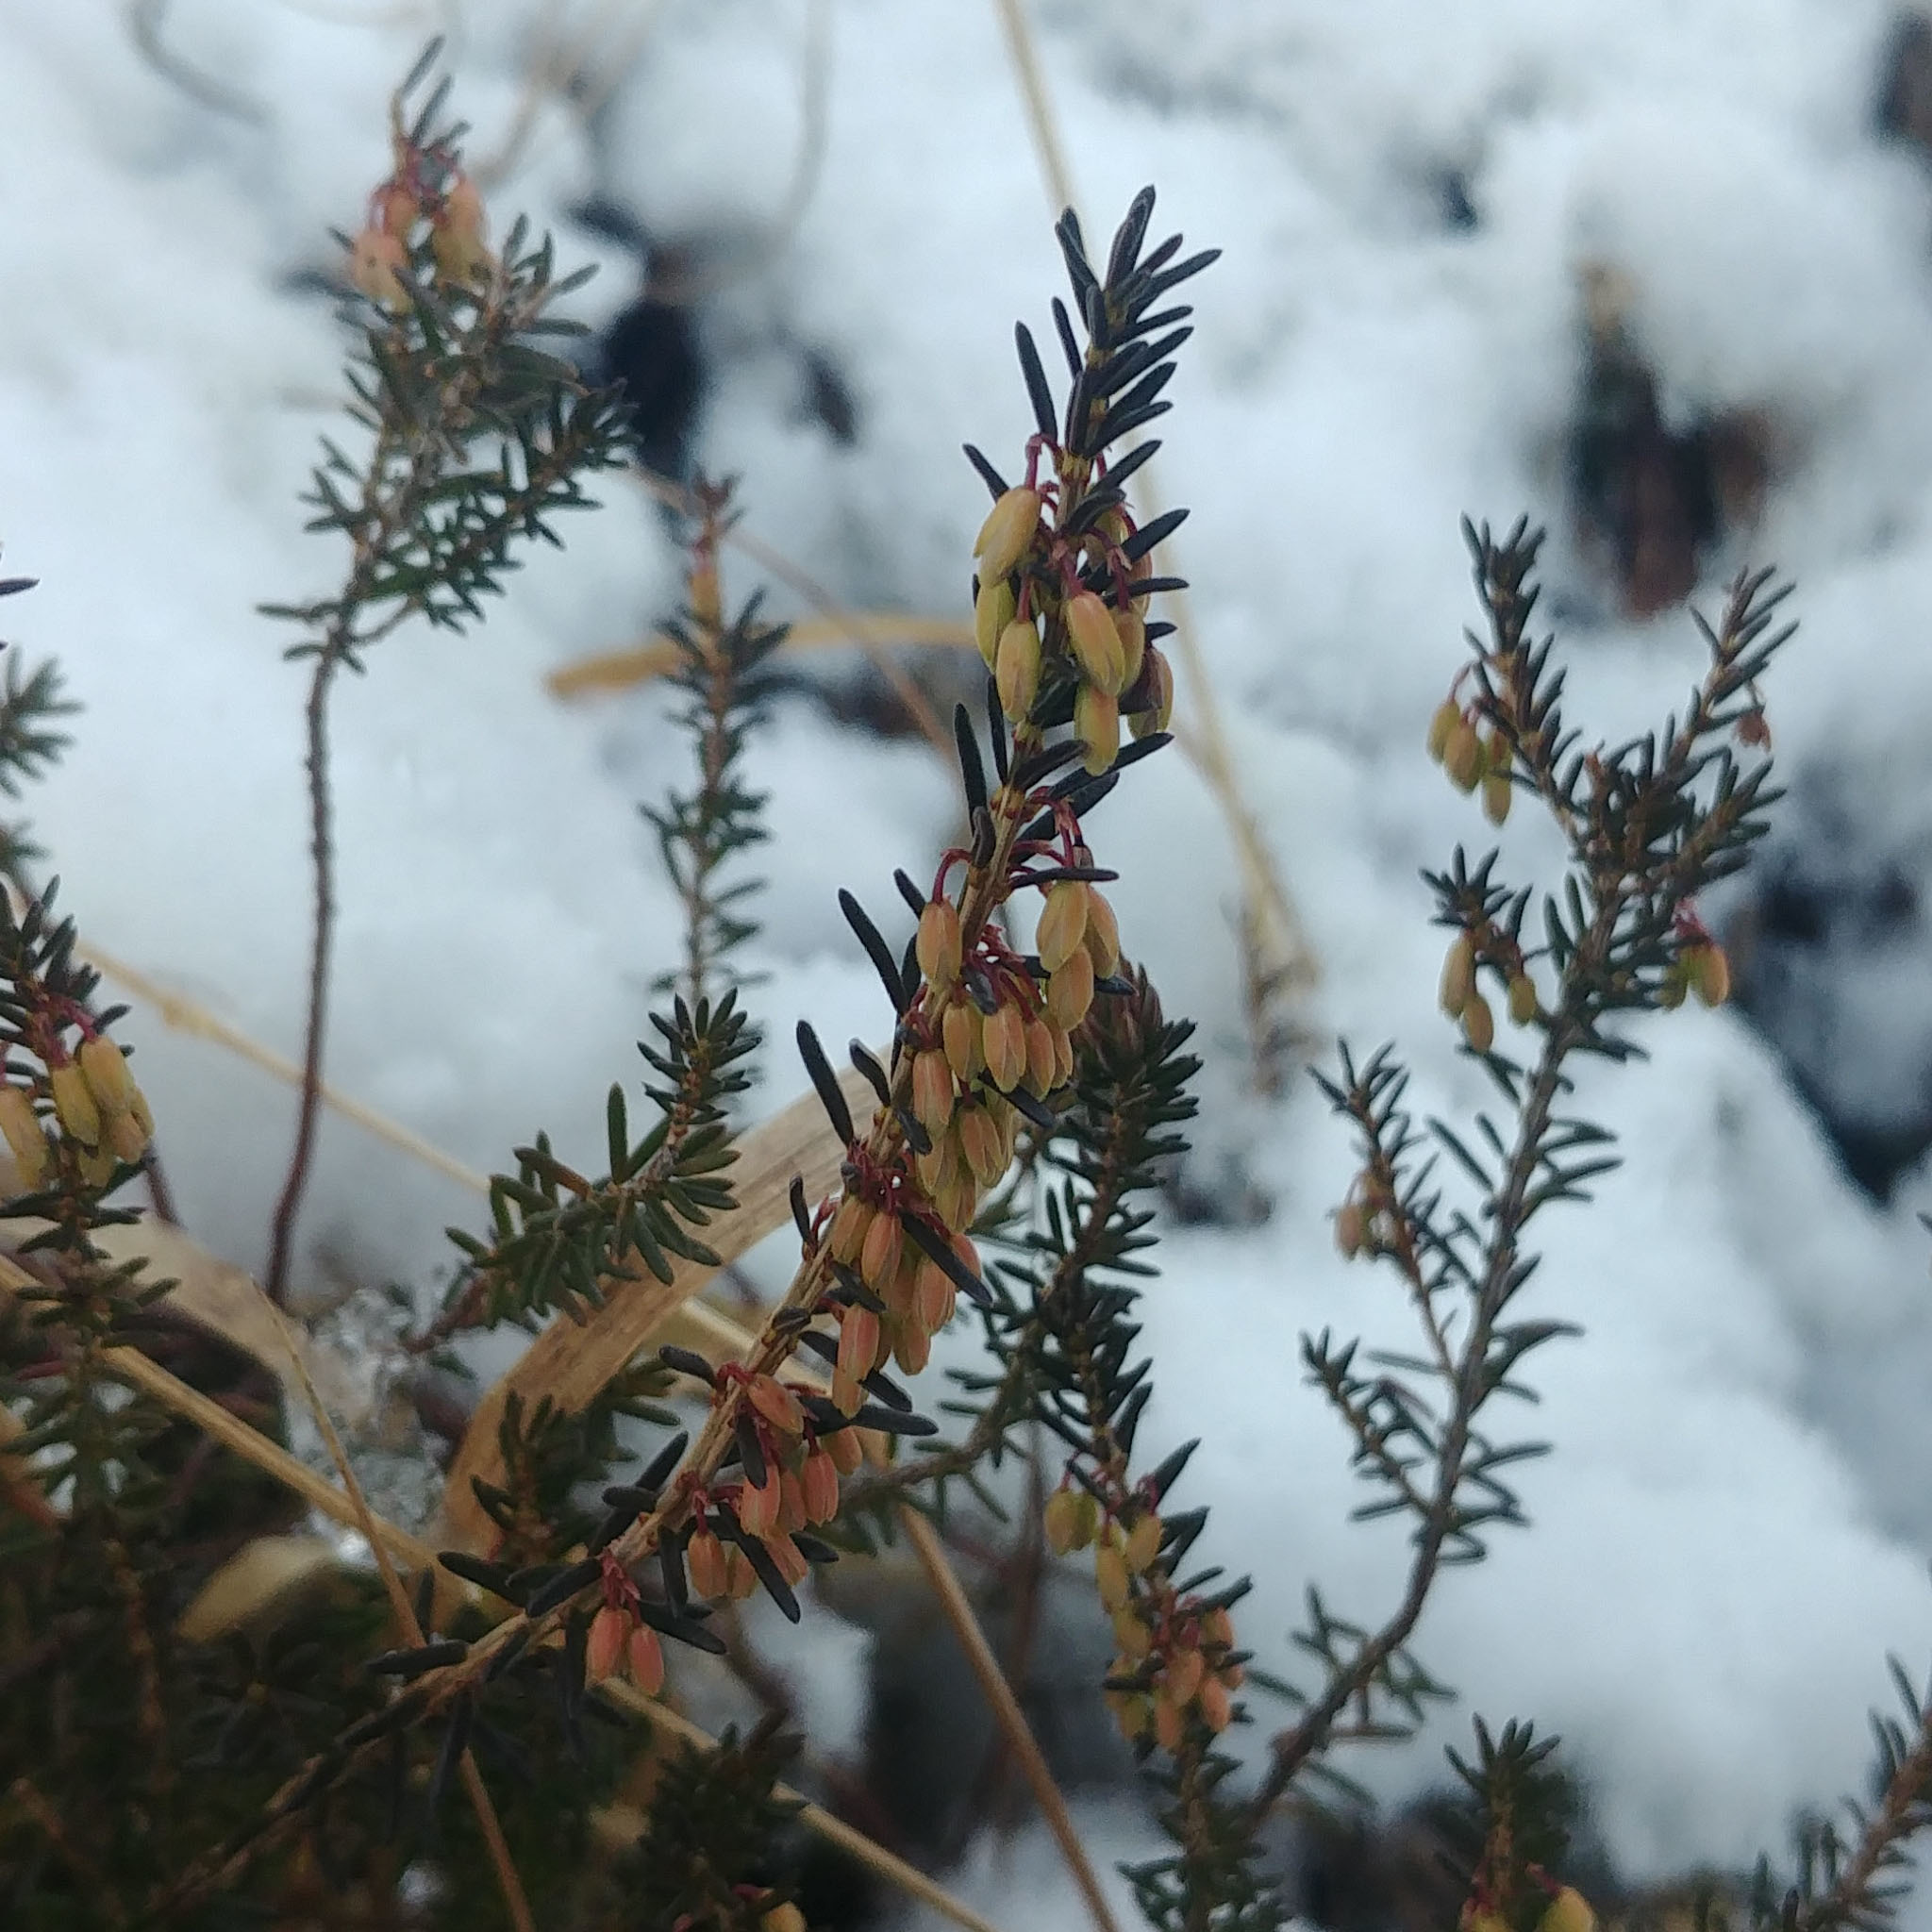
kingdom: Plantae
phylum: Tracheophyta
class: Magnoliopsida
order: Ericales
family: Ericaceae
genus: Erica
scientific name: Erica carnea
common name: Winter heath
